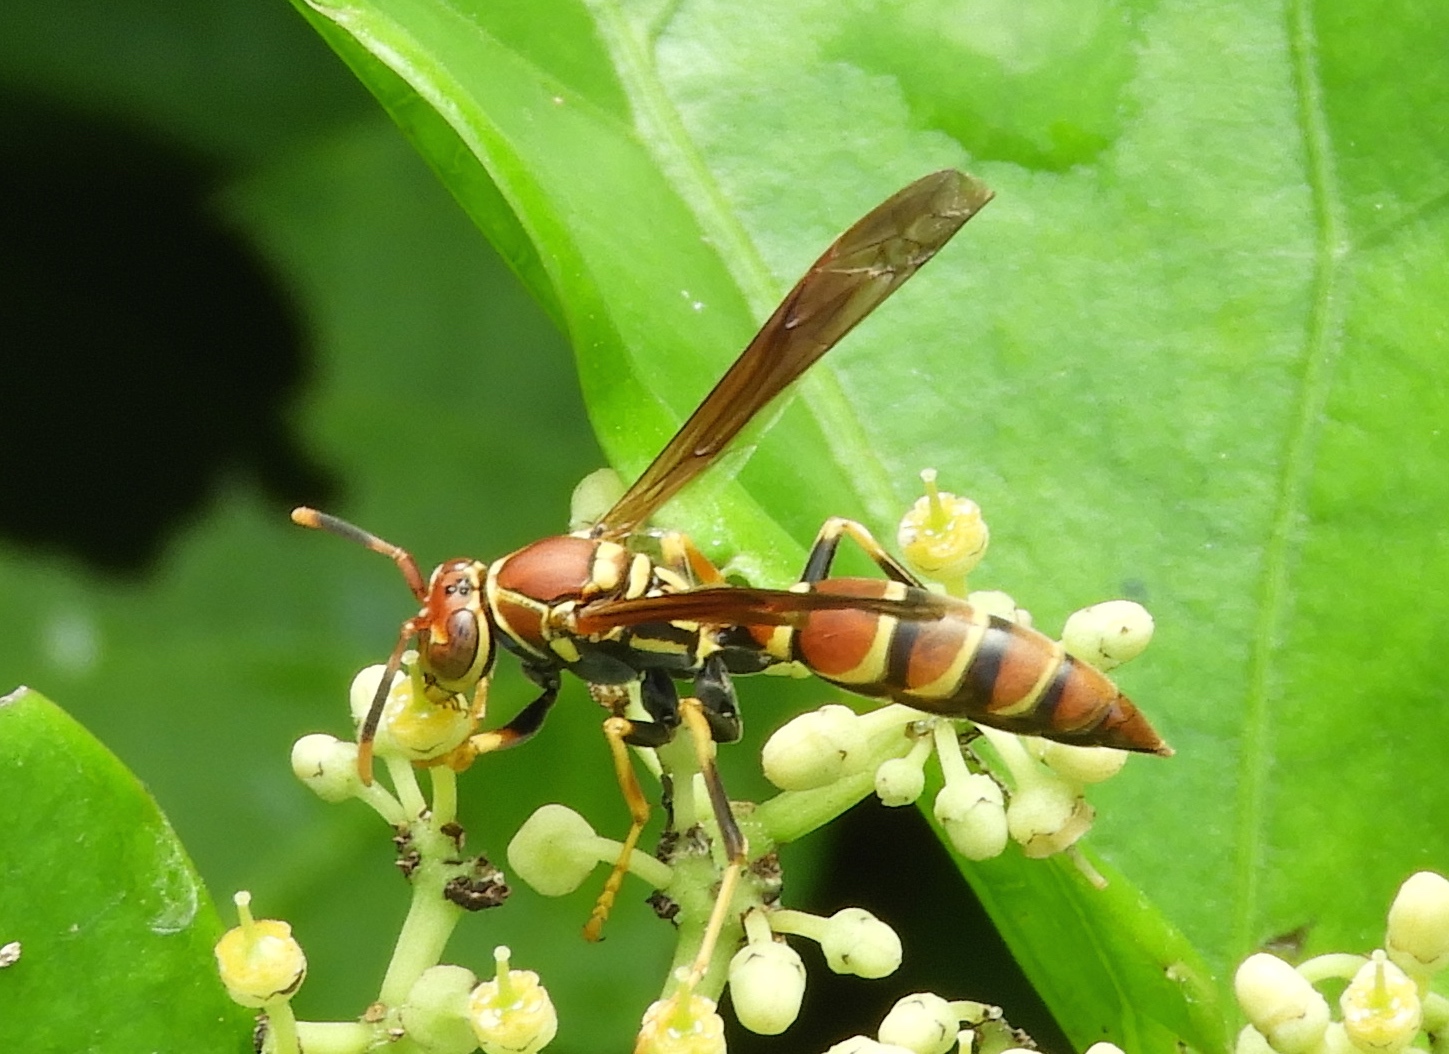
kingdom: Animalia
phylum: Arthropoda
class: Insecta
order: Hymenoptera
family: Eumenidae
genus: Polistes
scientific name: Polistes instabilis
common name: Unstable paper wasp
